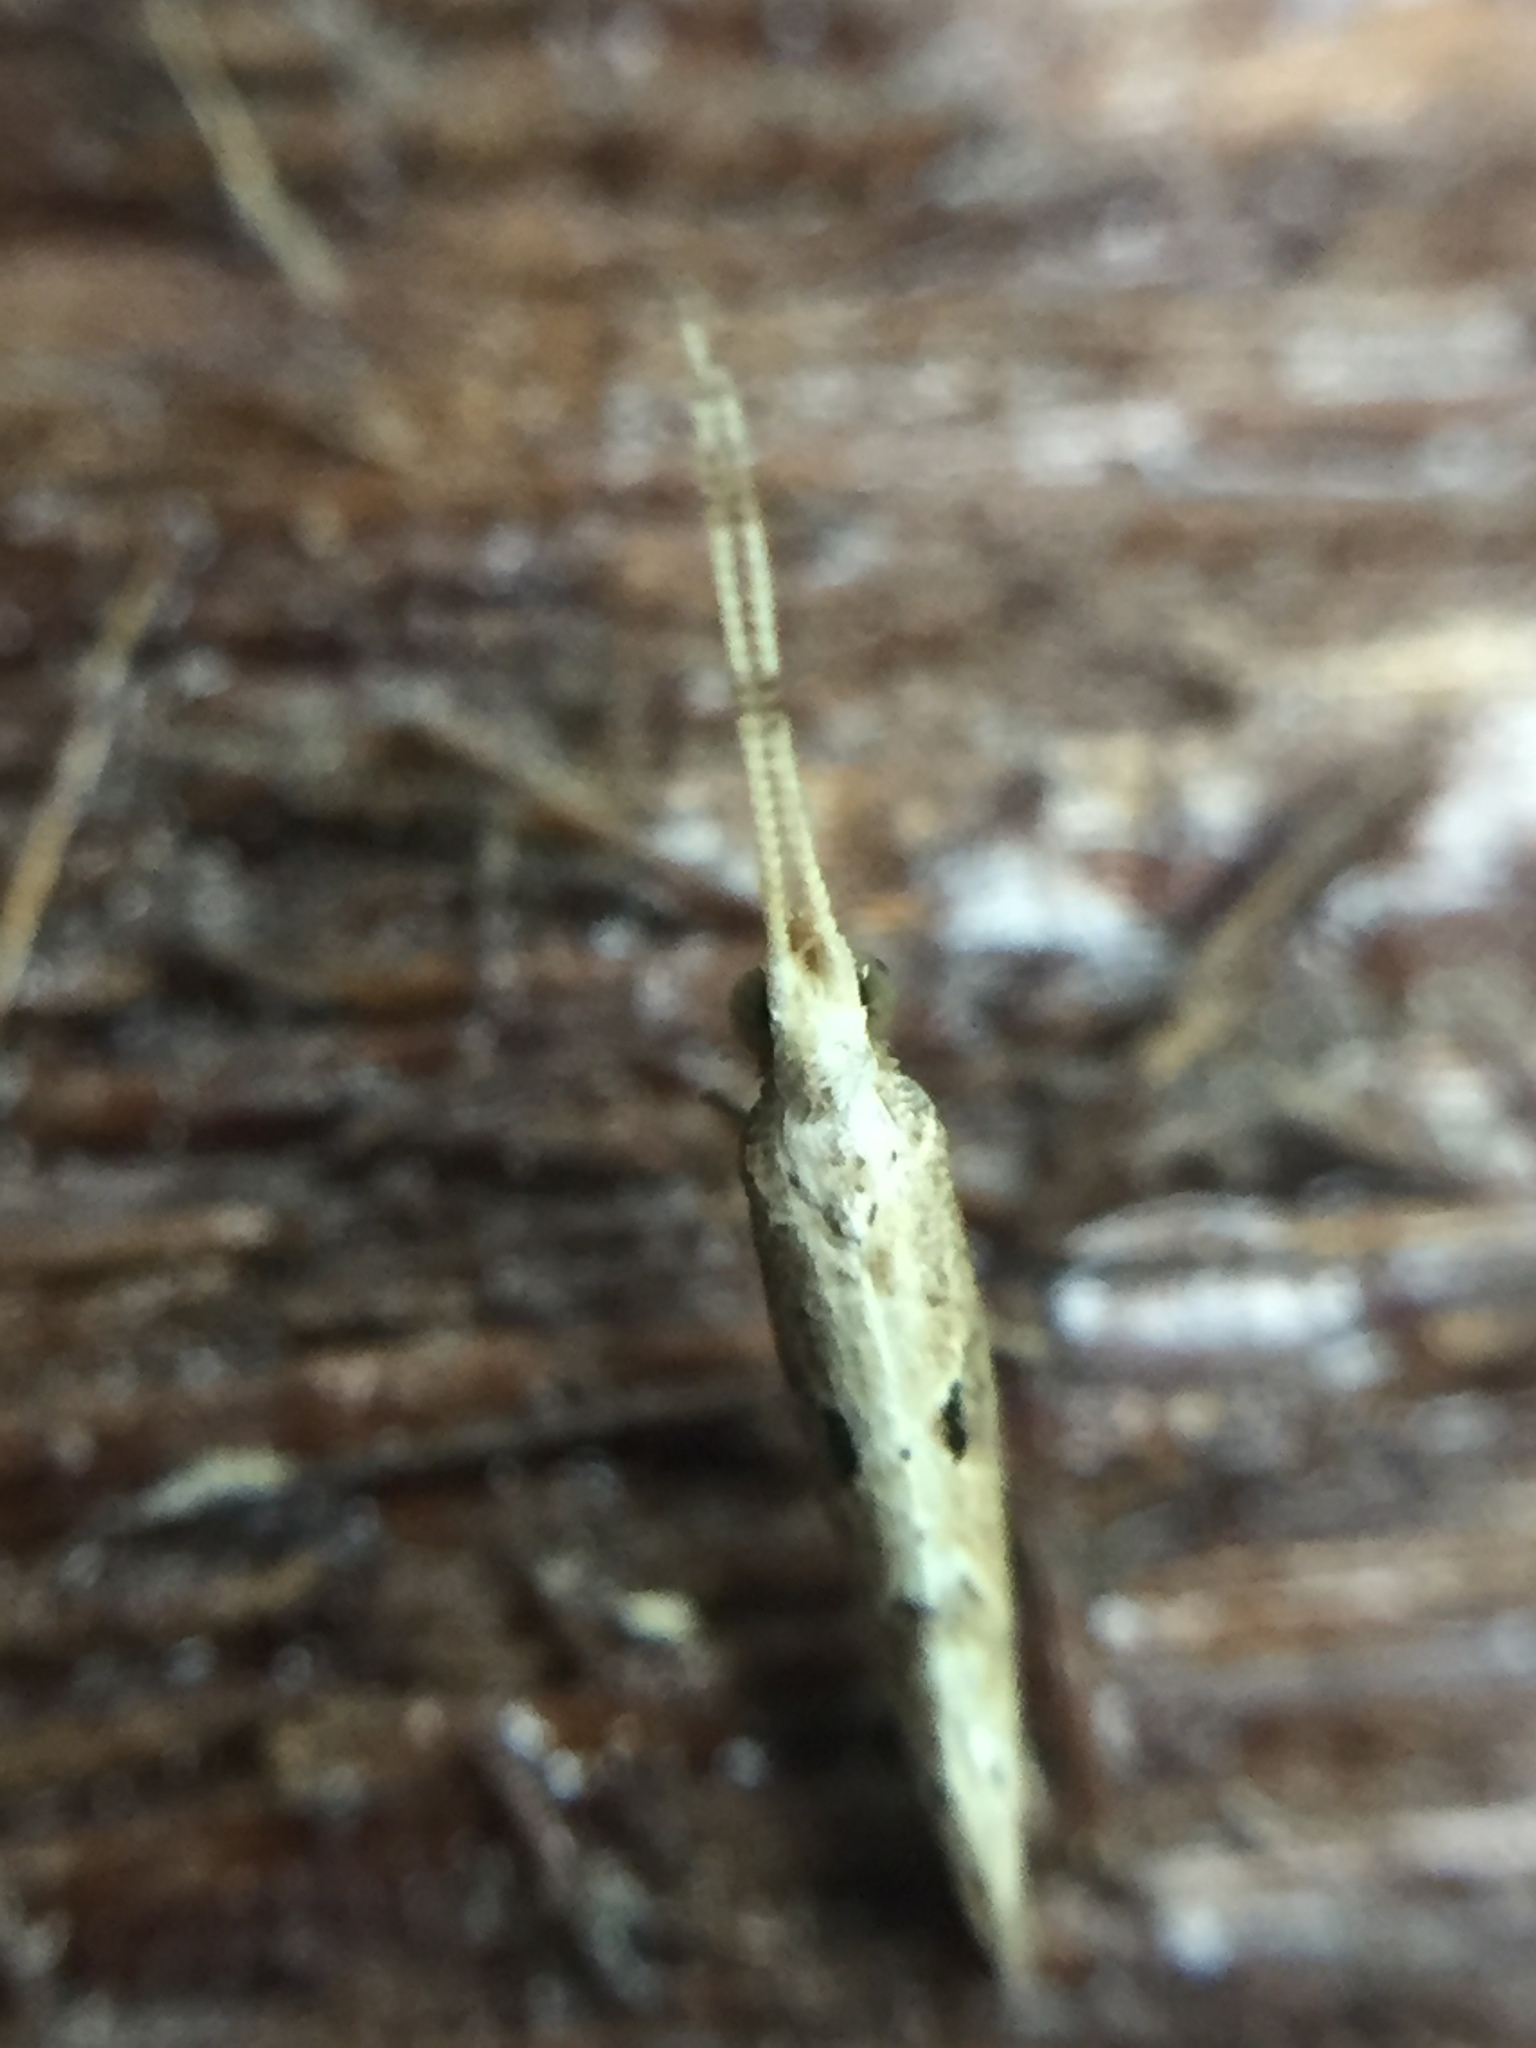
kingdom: Animalia
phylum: Arthropoda
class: Insecta
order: Lepidoptera
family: Plutellidae
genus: Leuroperna
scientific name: Leuroperna sera
